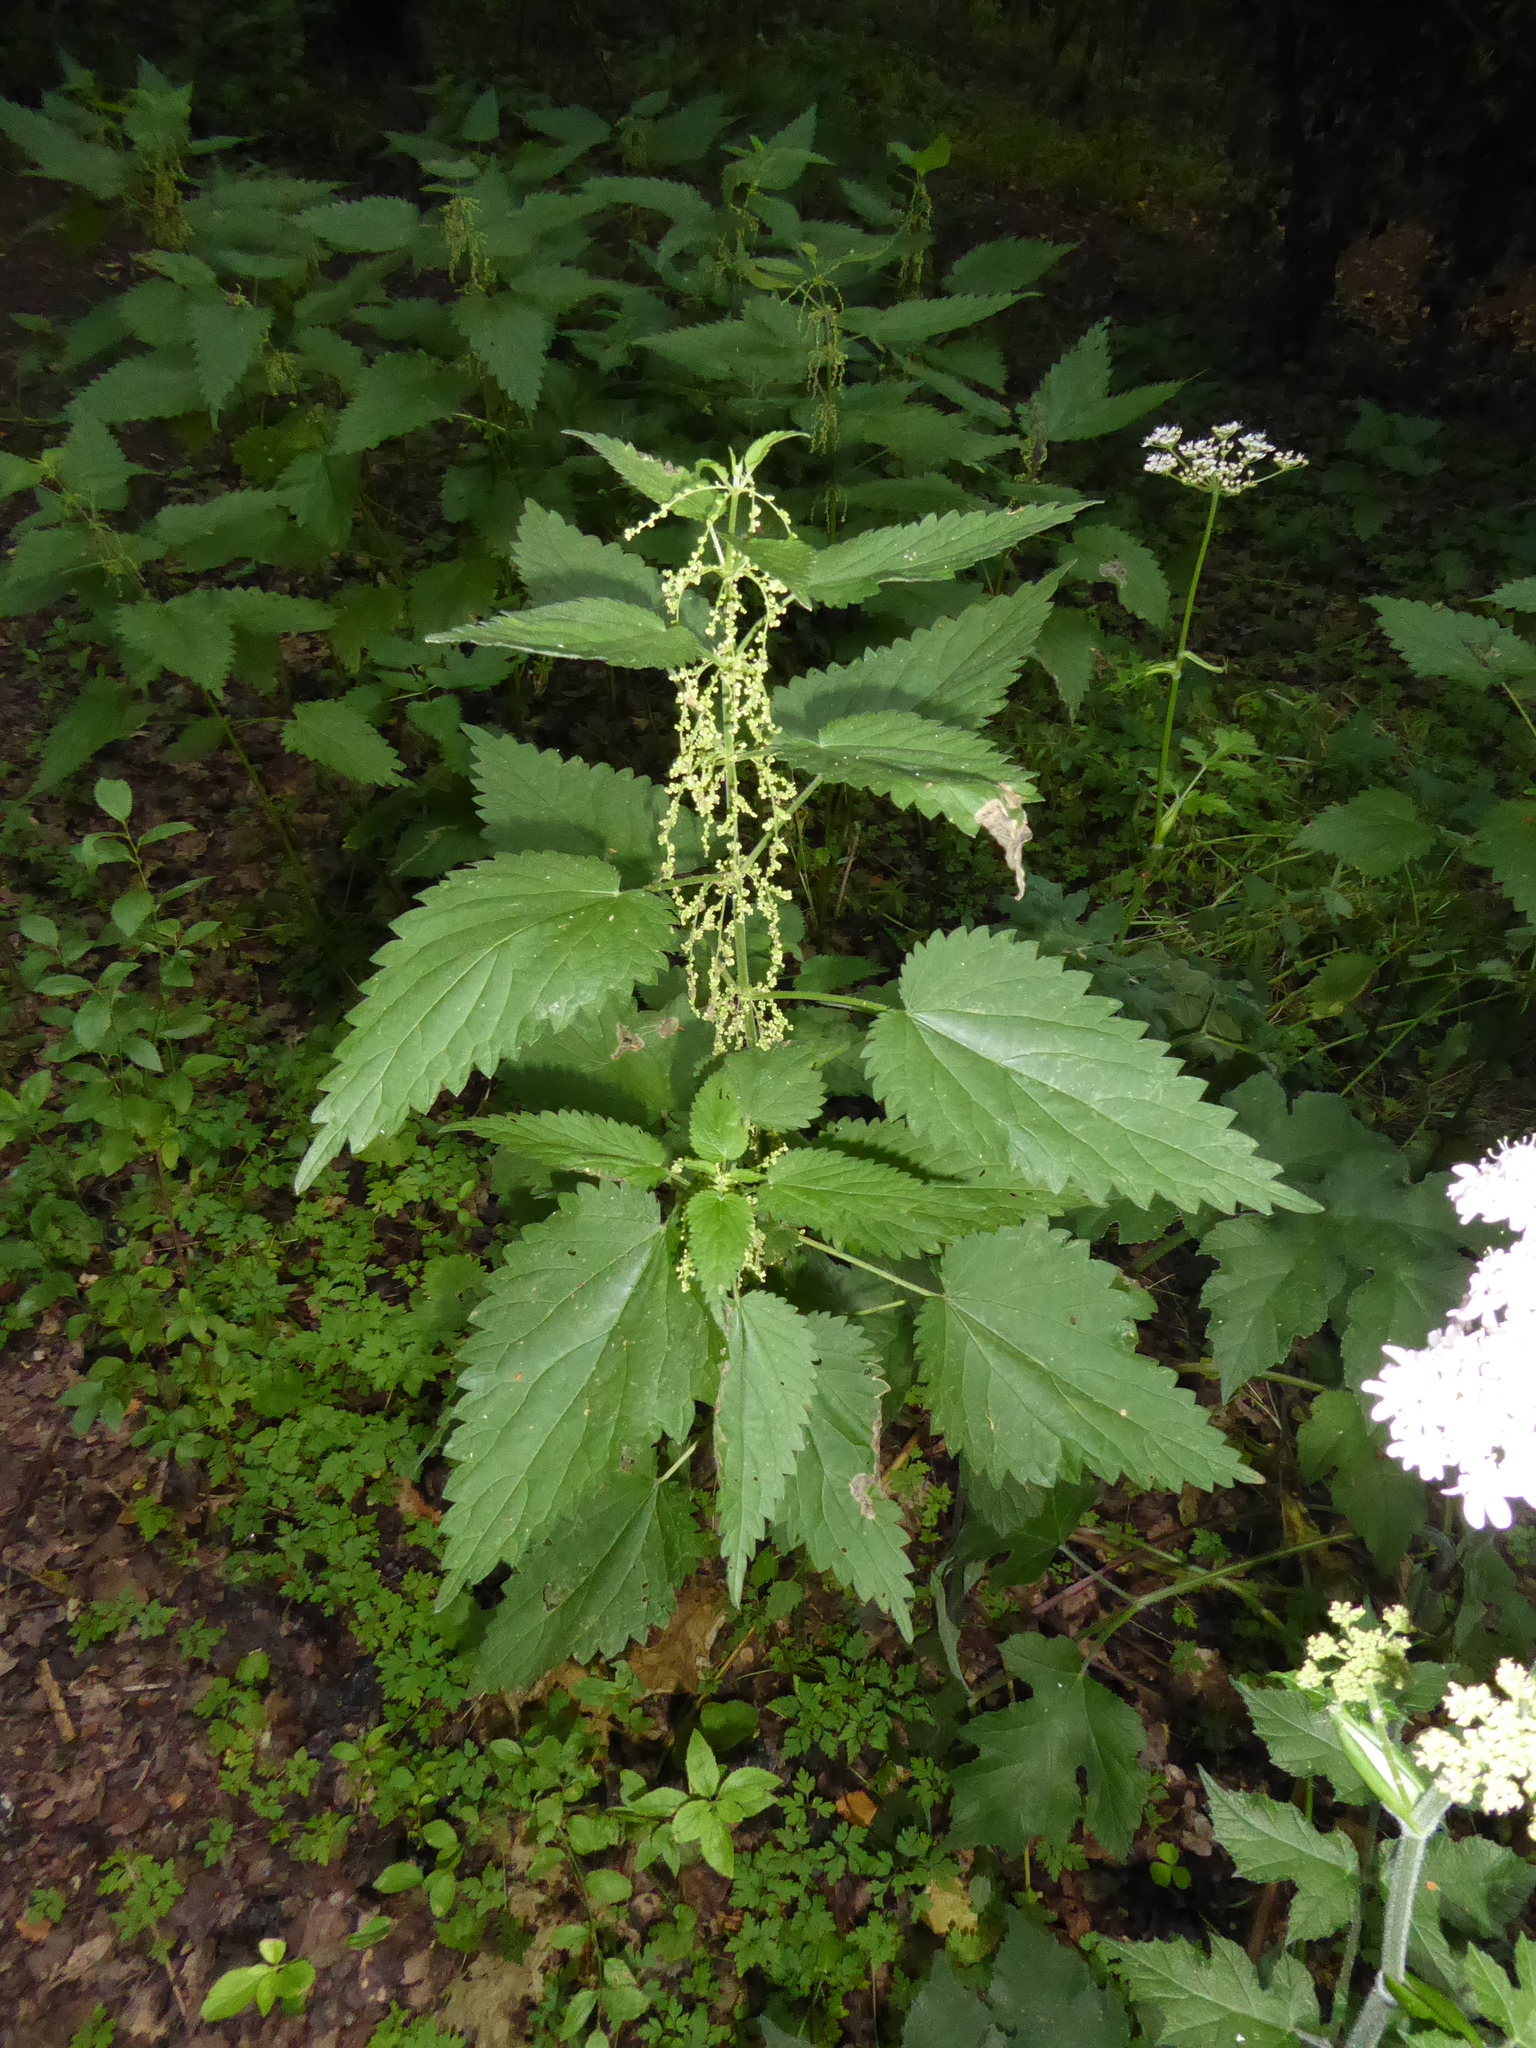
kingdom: Plantae
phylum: Tracheophyta
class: Magnoliopsida
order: Rosales
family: Urticaceae
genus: Urtica
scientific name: Urtica dioica
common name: Common nettle
